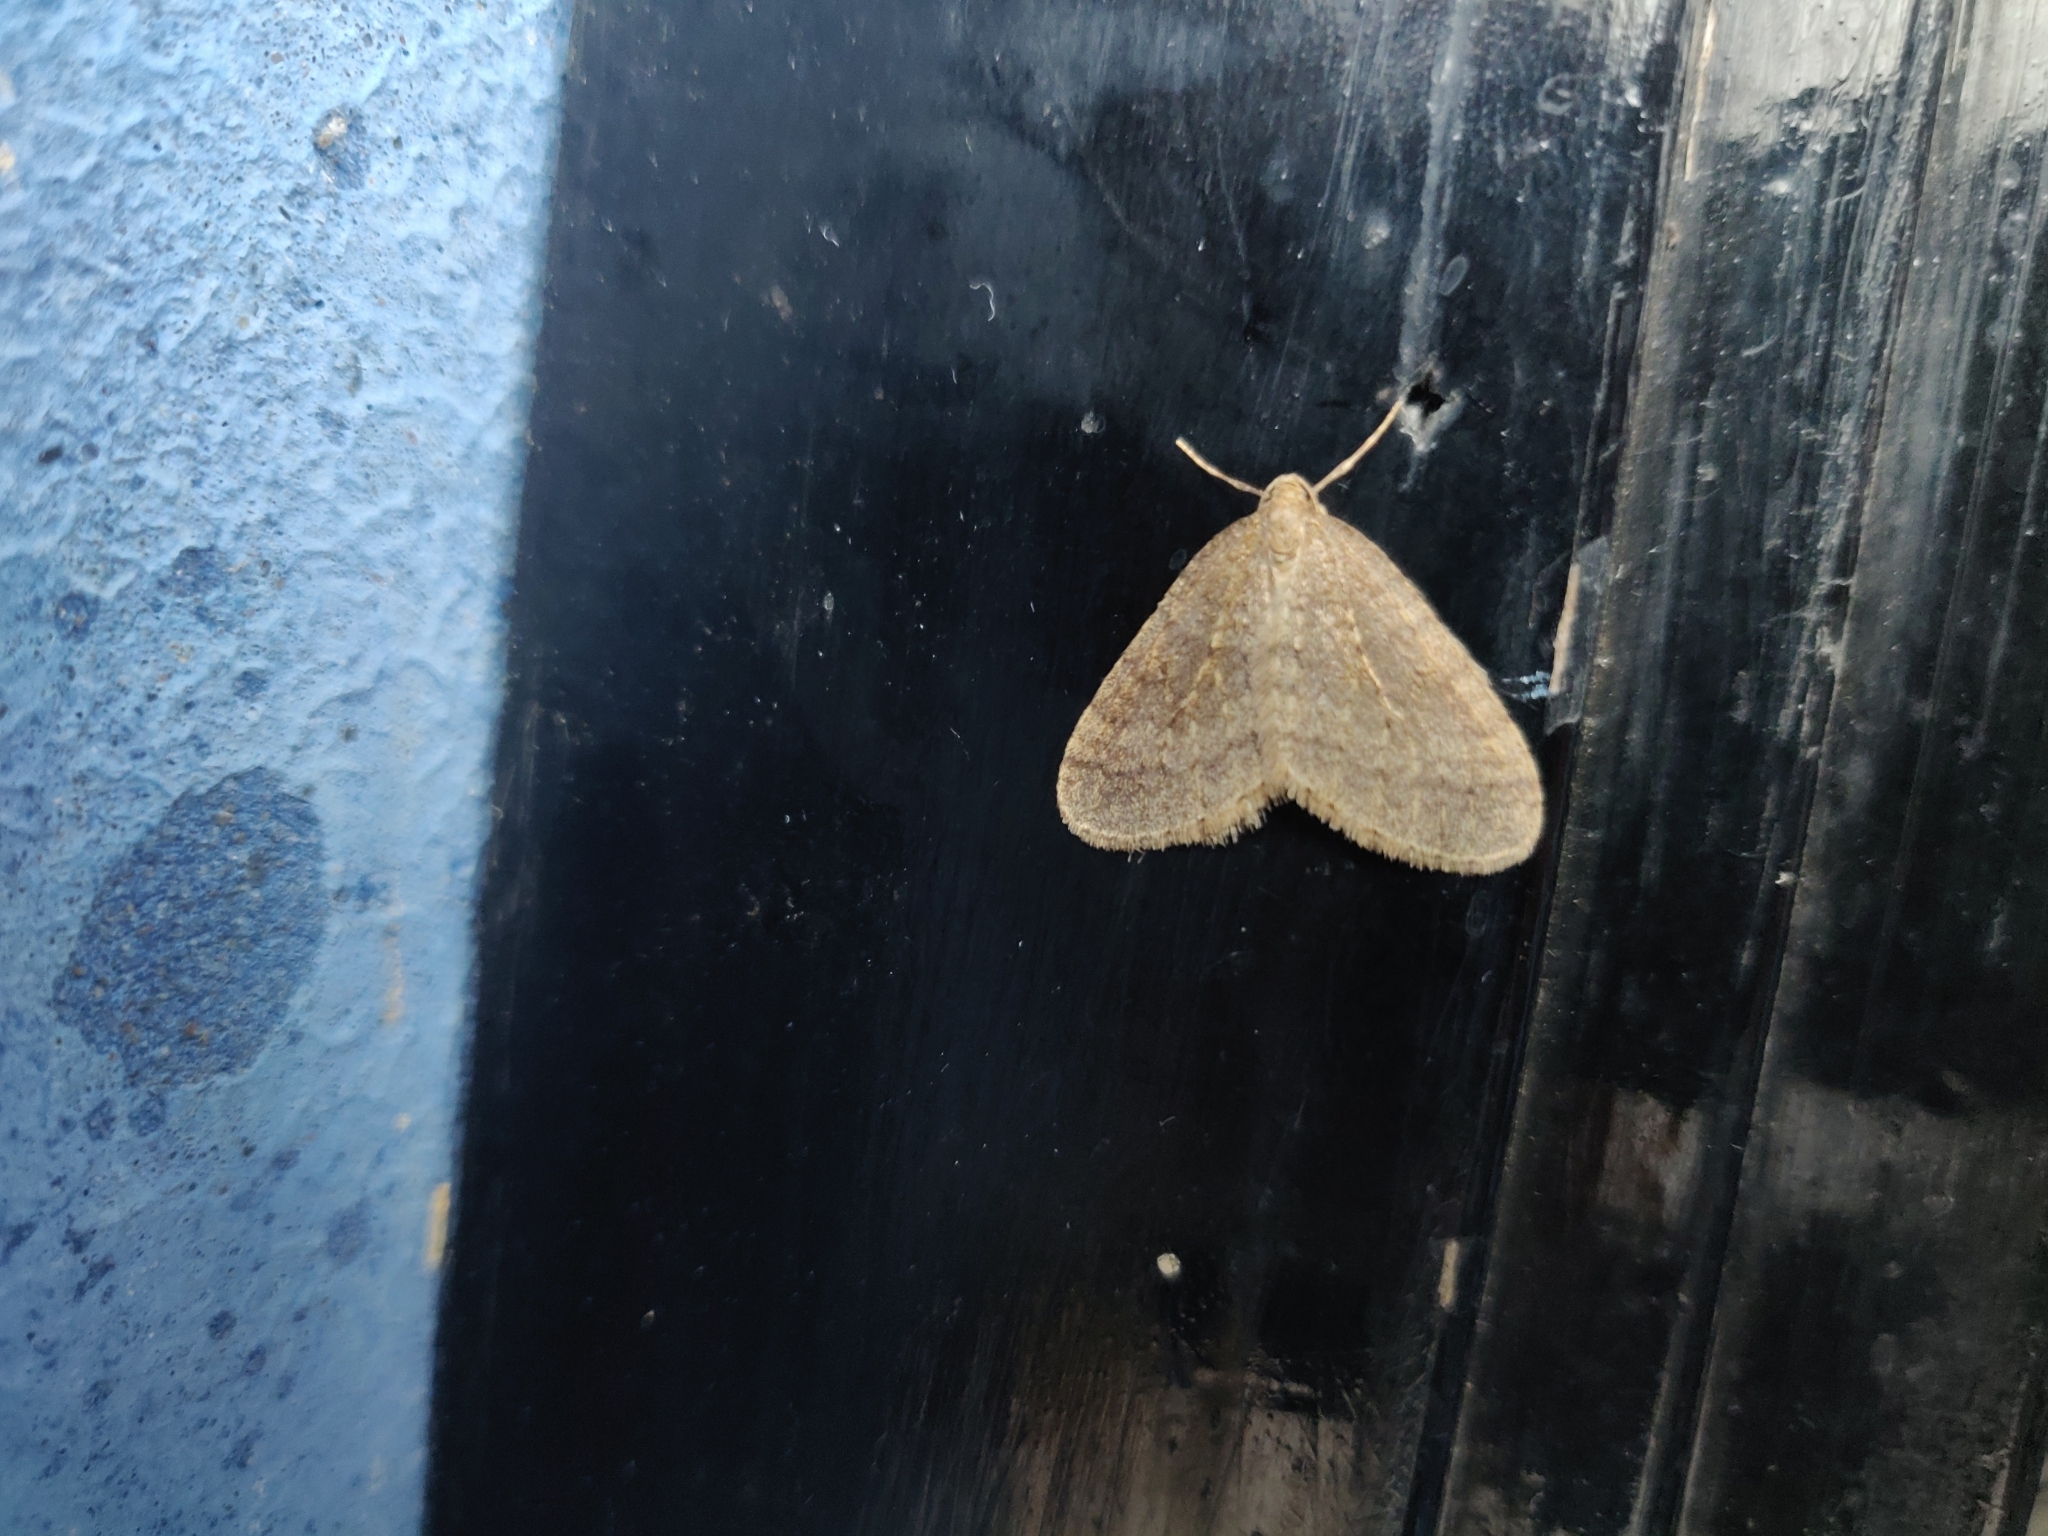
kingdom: Animalia
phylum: Arthropoda
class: Insecta
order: Lepidoptera
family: Geometridae
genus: Operophtera
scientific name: Operophtera brumata
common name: Winter moth
